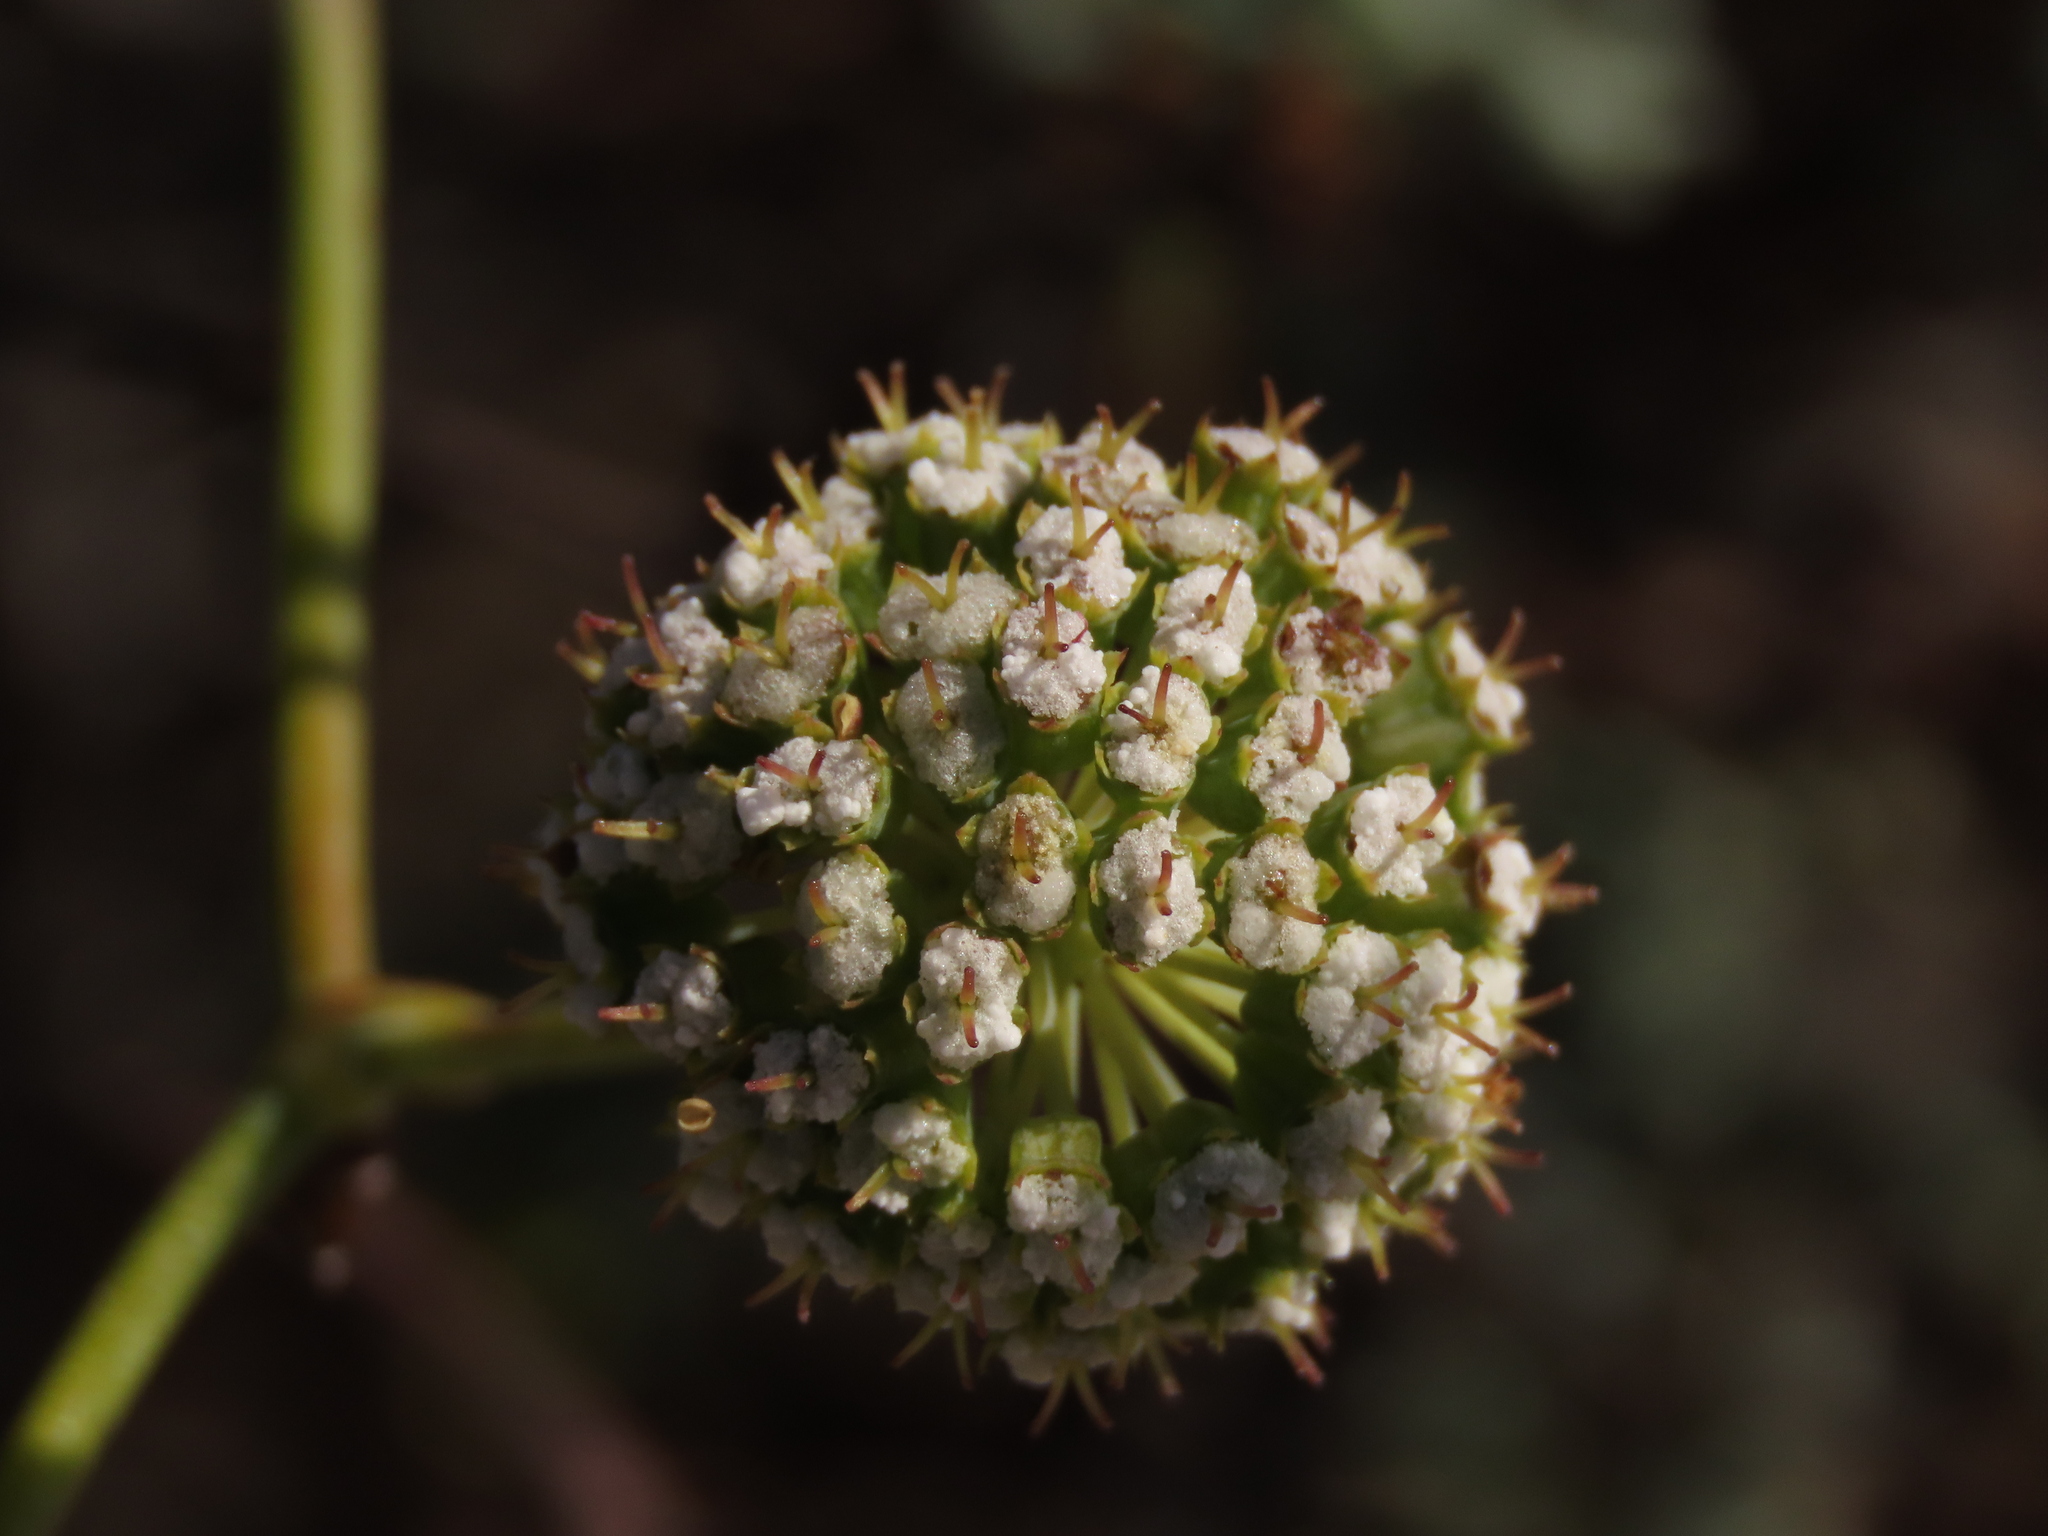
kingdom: Plantae
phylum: Tracheophyta
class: Magnoliopsida
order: Apiales
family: Apiaceae
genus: Eremocharis
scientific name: Eremocharis fruticosa
